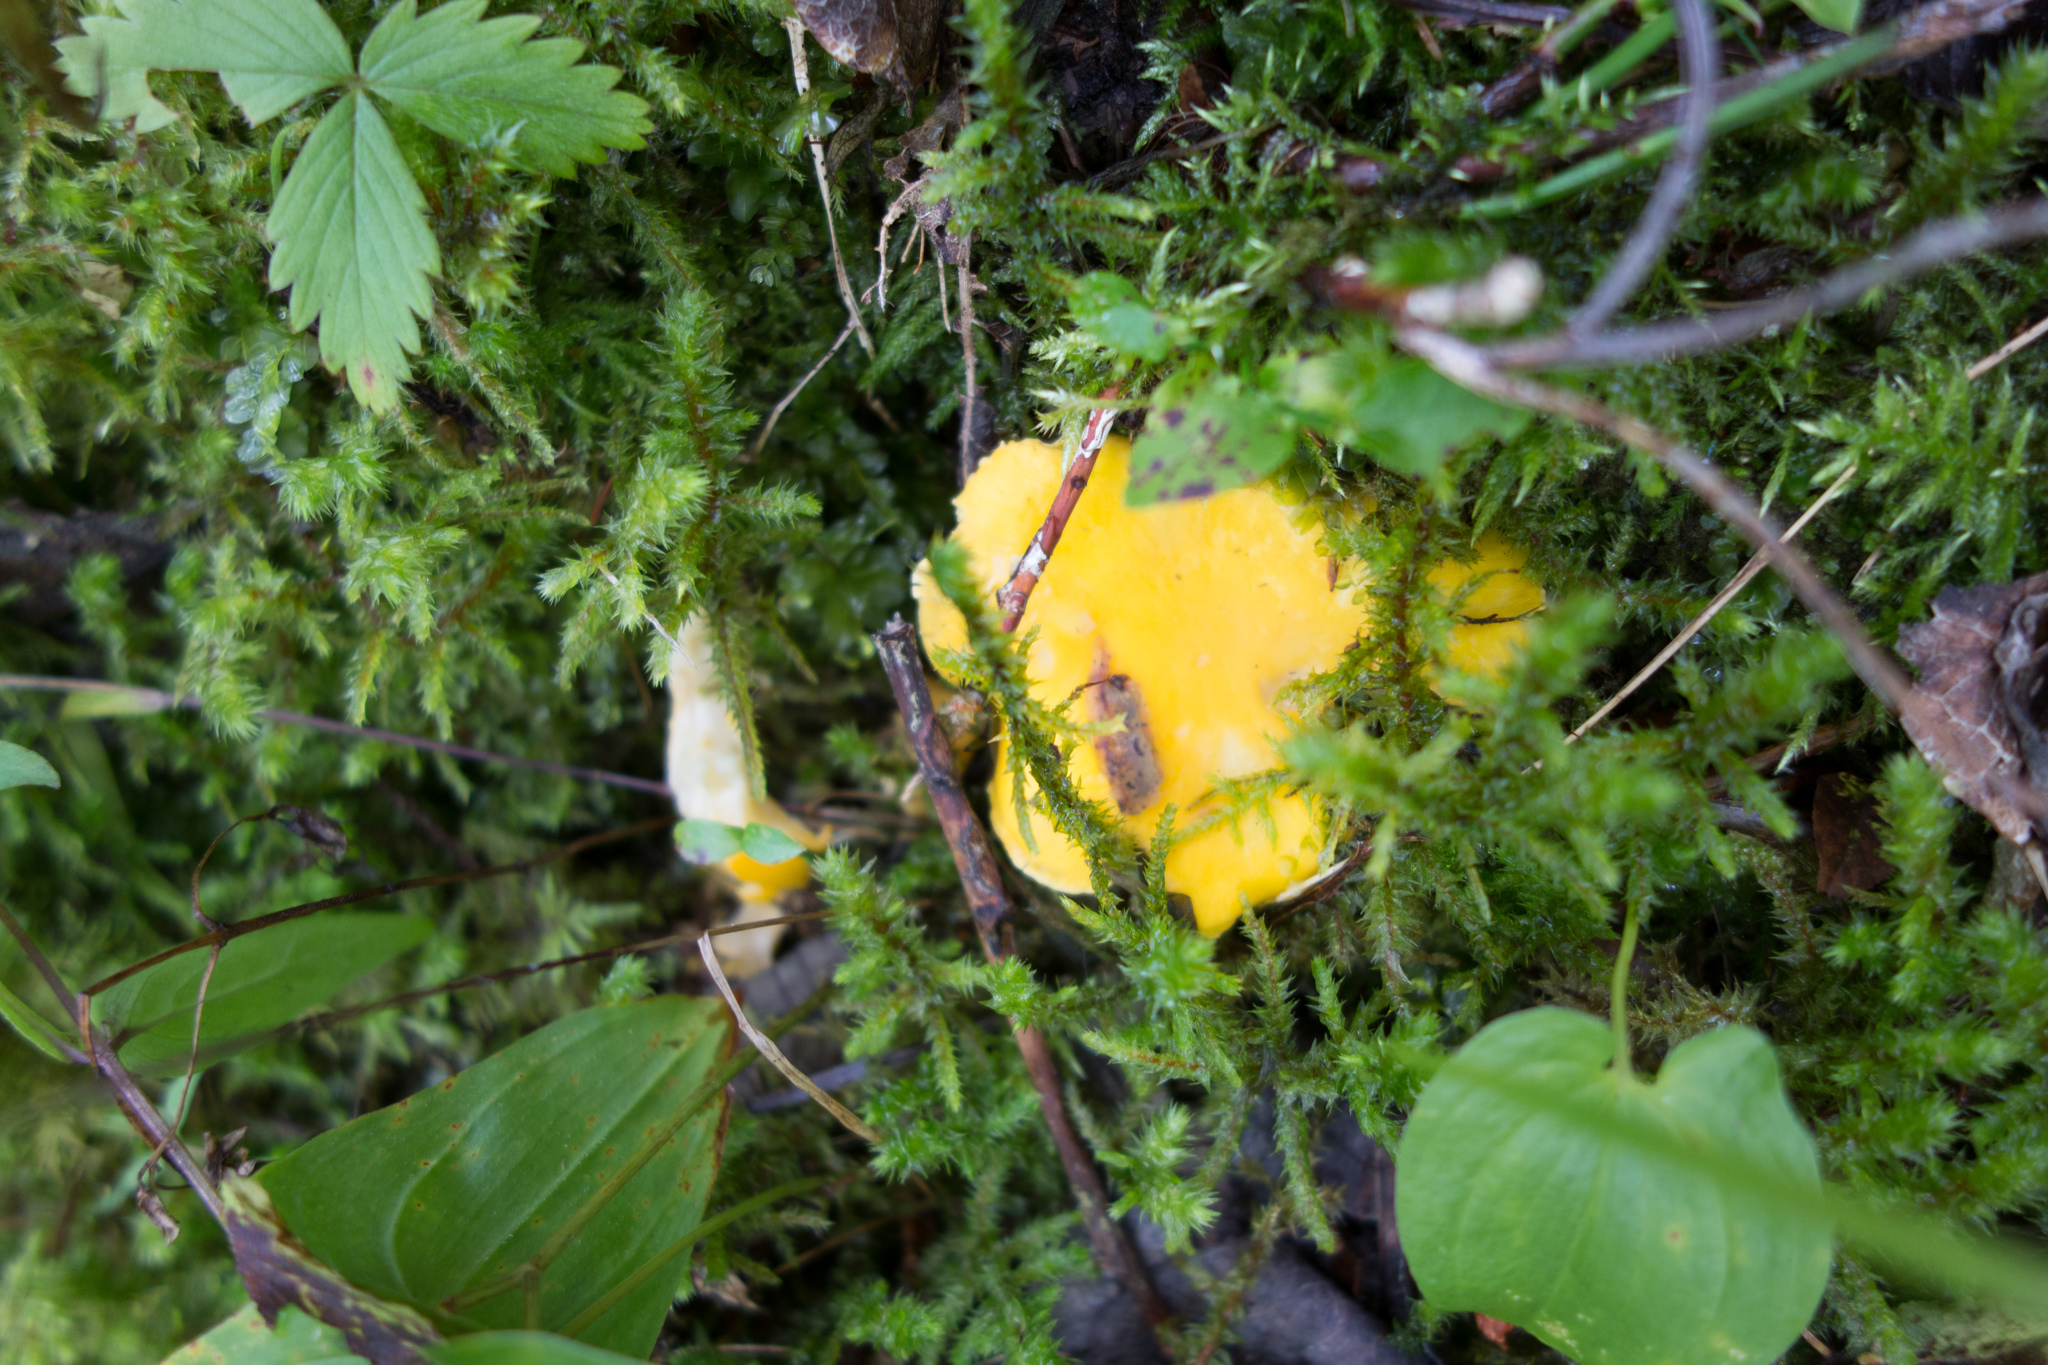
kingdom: Fungi
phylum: Basidiomycota
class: Agaricomycetes
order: Cantharellales
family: Hydnaceae
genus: Cantharellus
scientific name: Cantharellus cibarius
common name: Chanterelle
